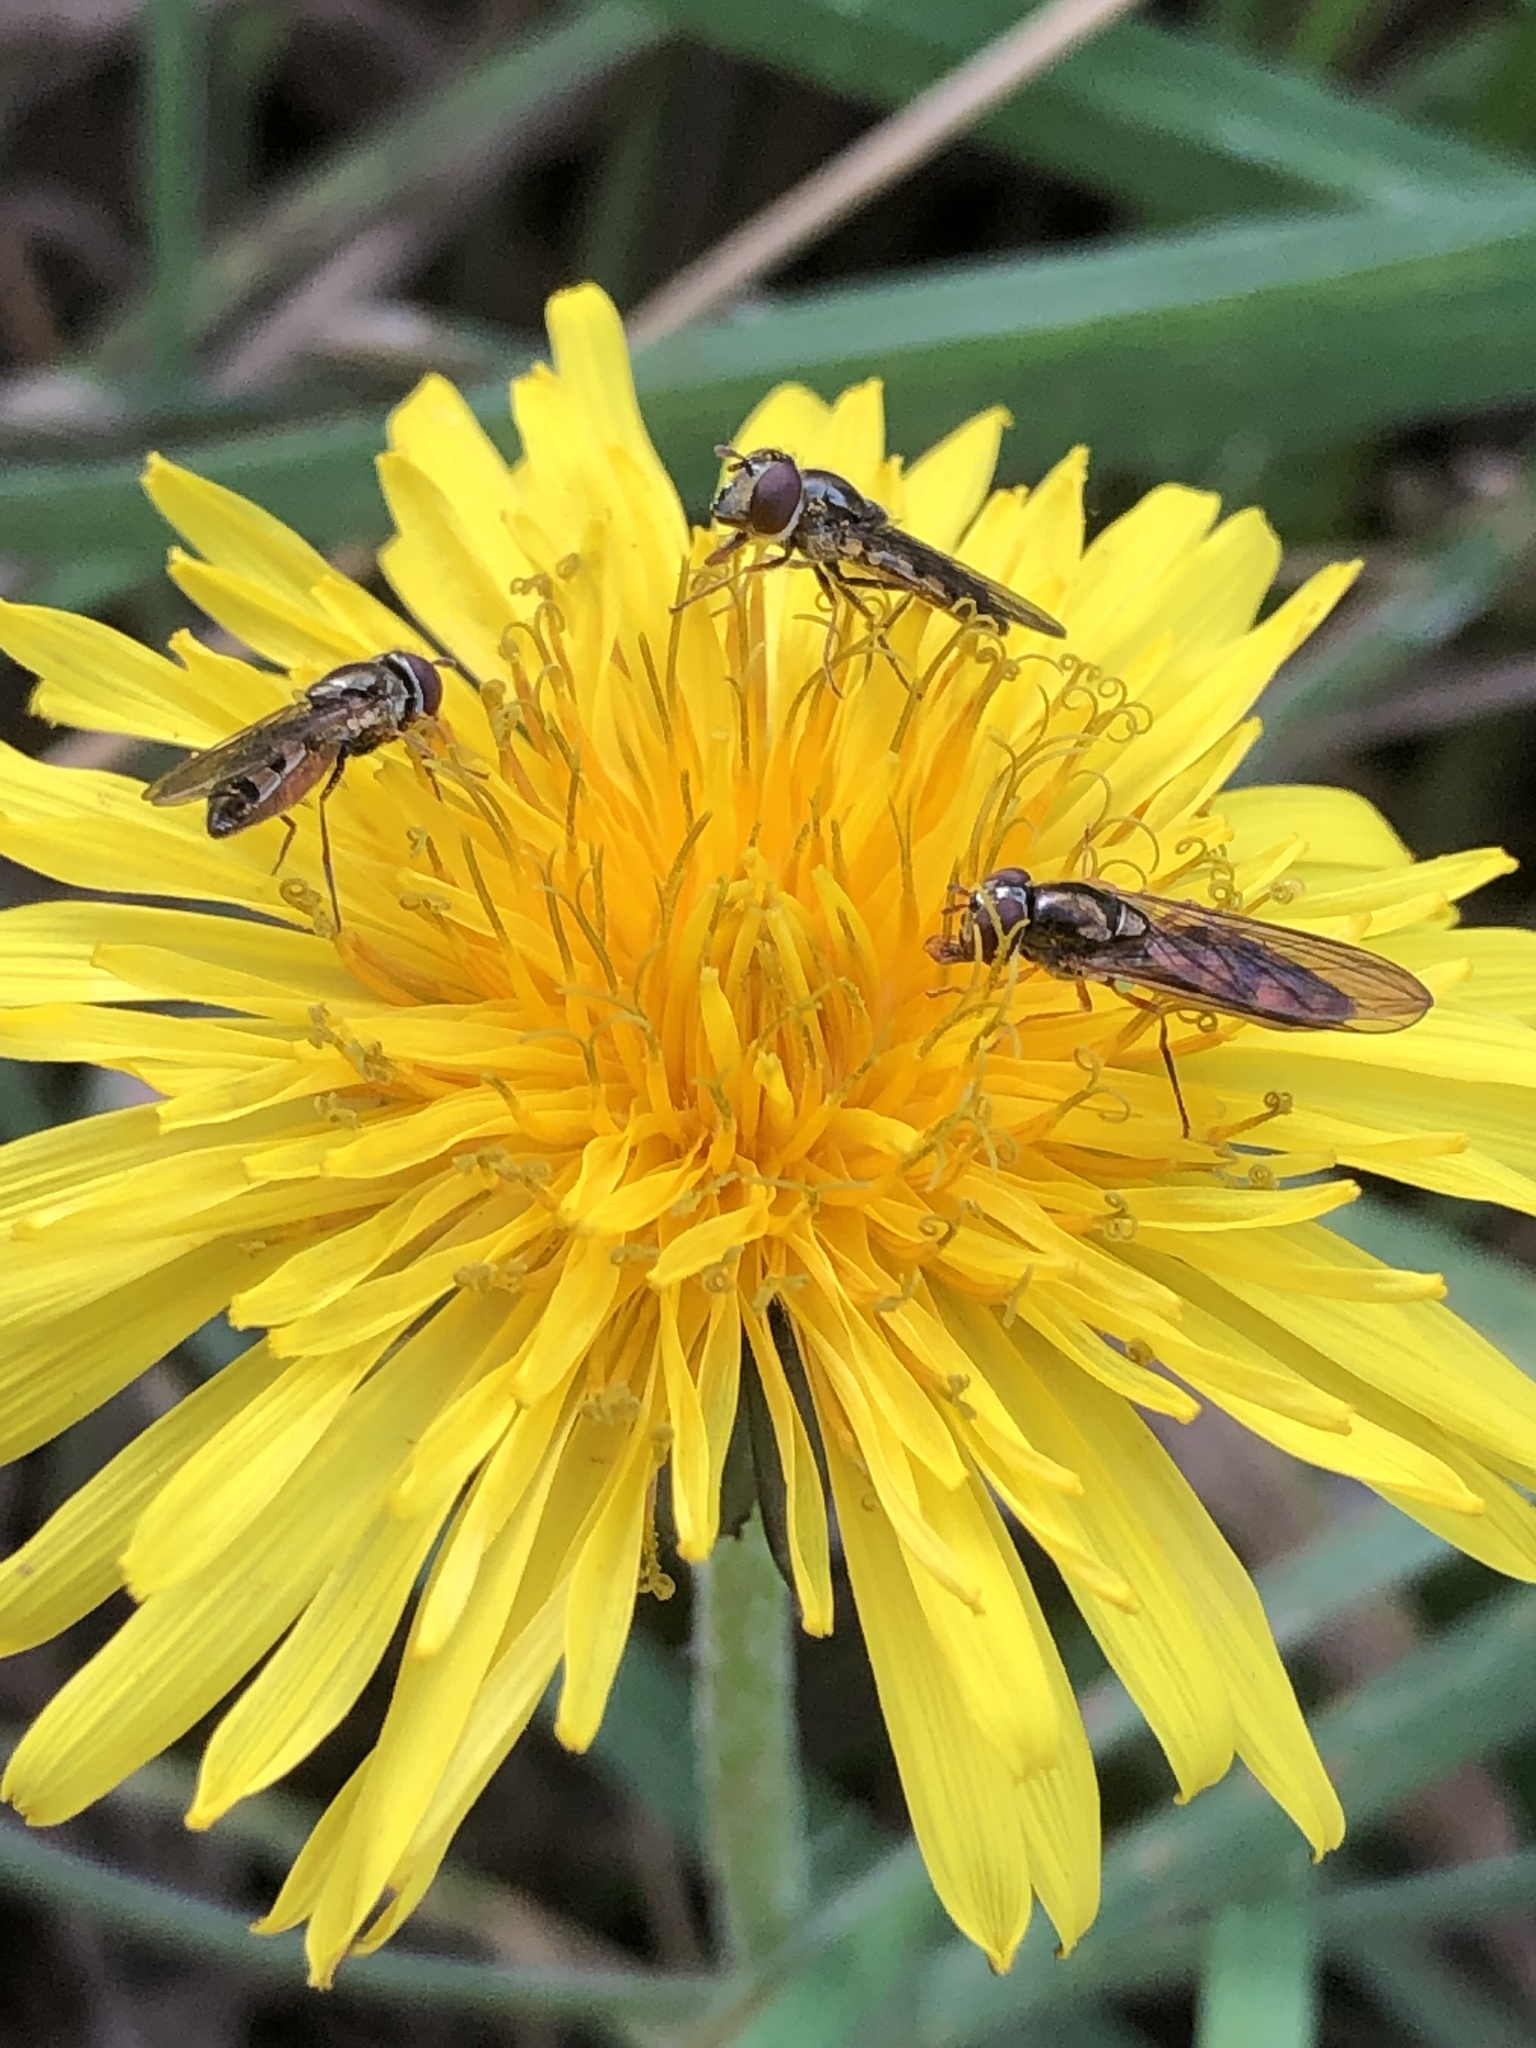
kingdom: Animalia
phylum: Arthropoda
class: Insecta
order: Diptera
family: Syrphidae
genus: Melanostoma
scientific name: Melanostoma mellina
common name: Hover fly
